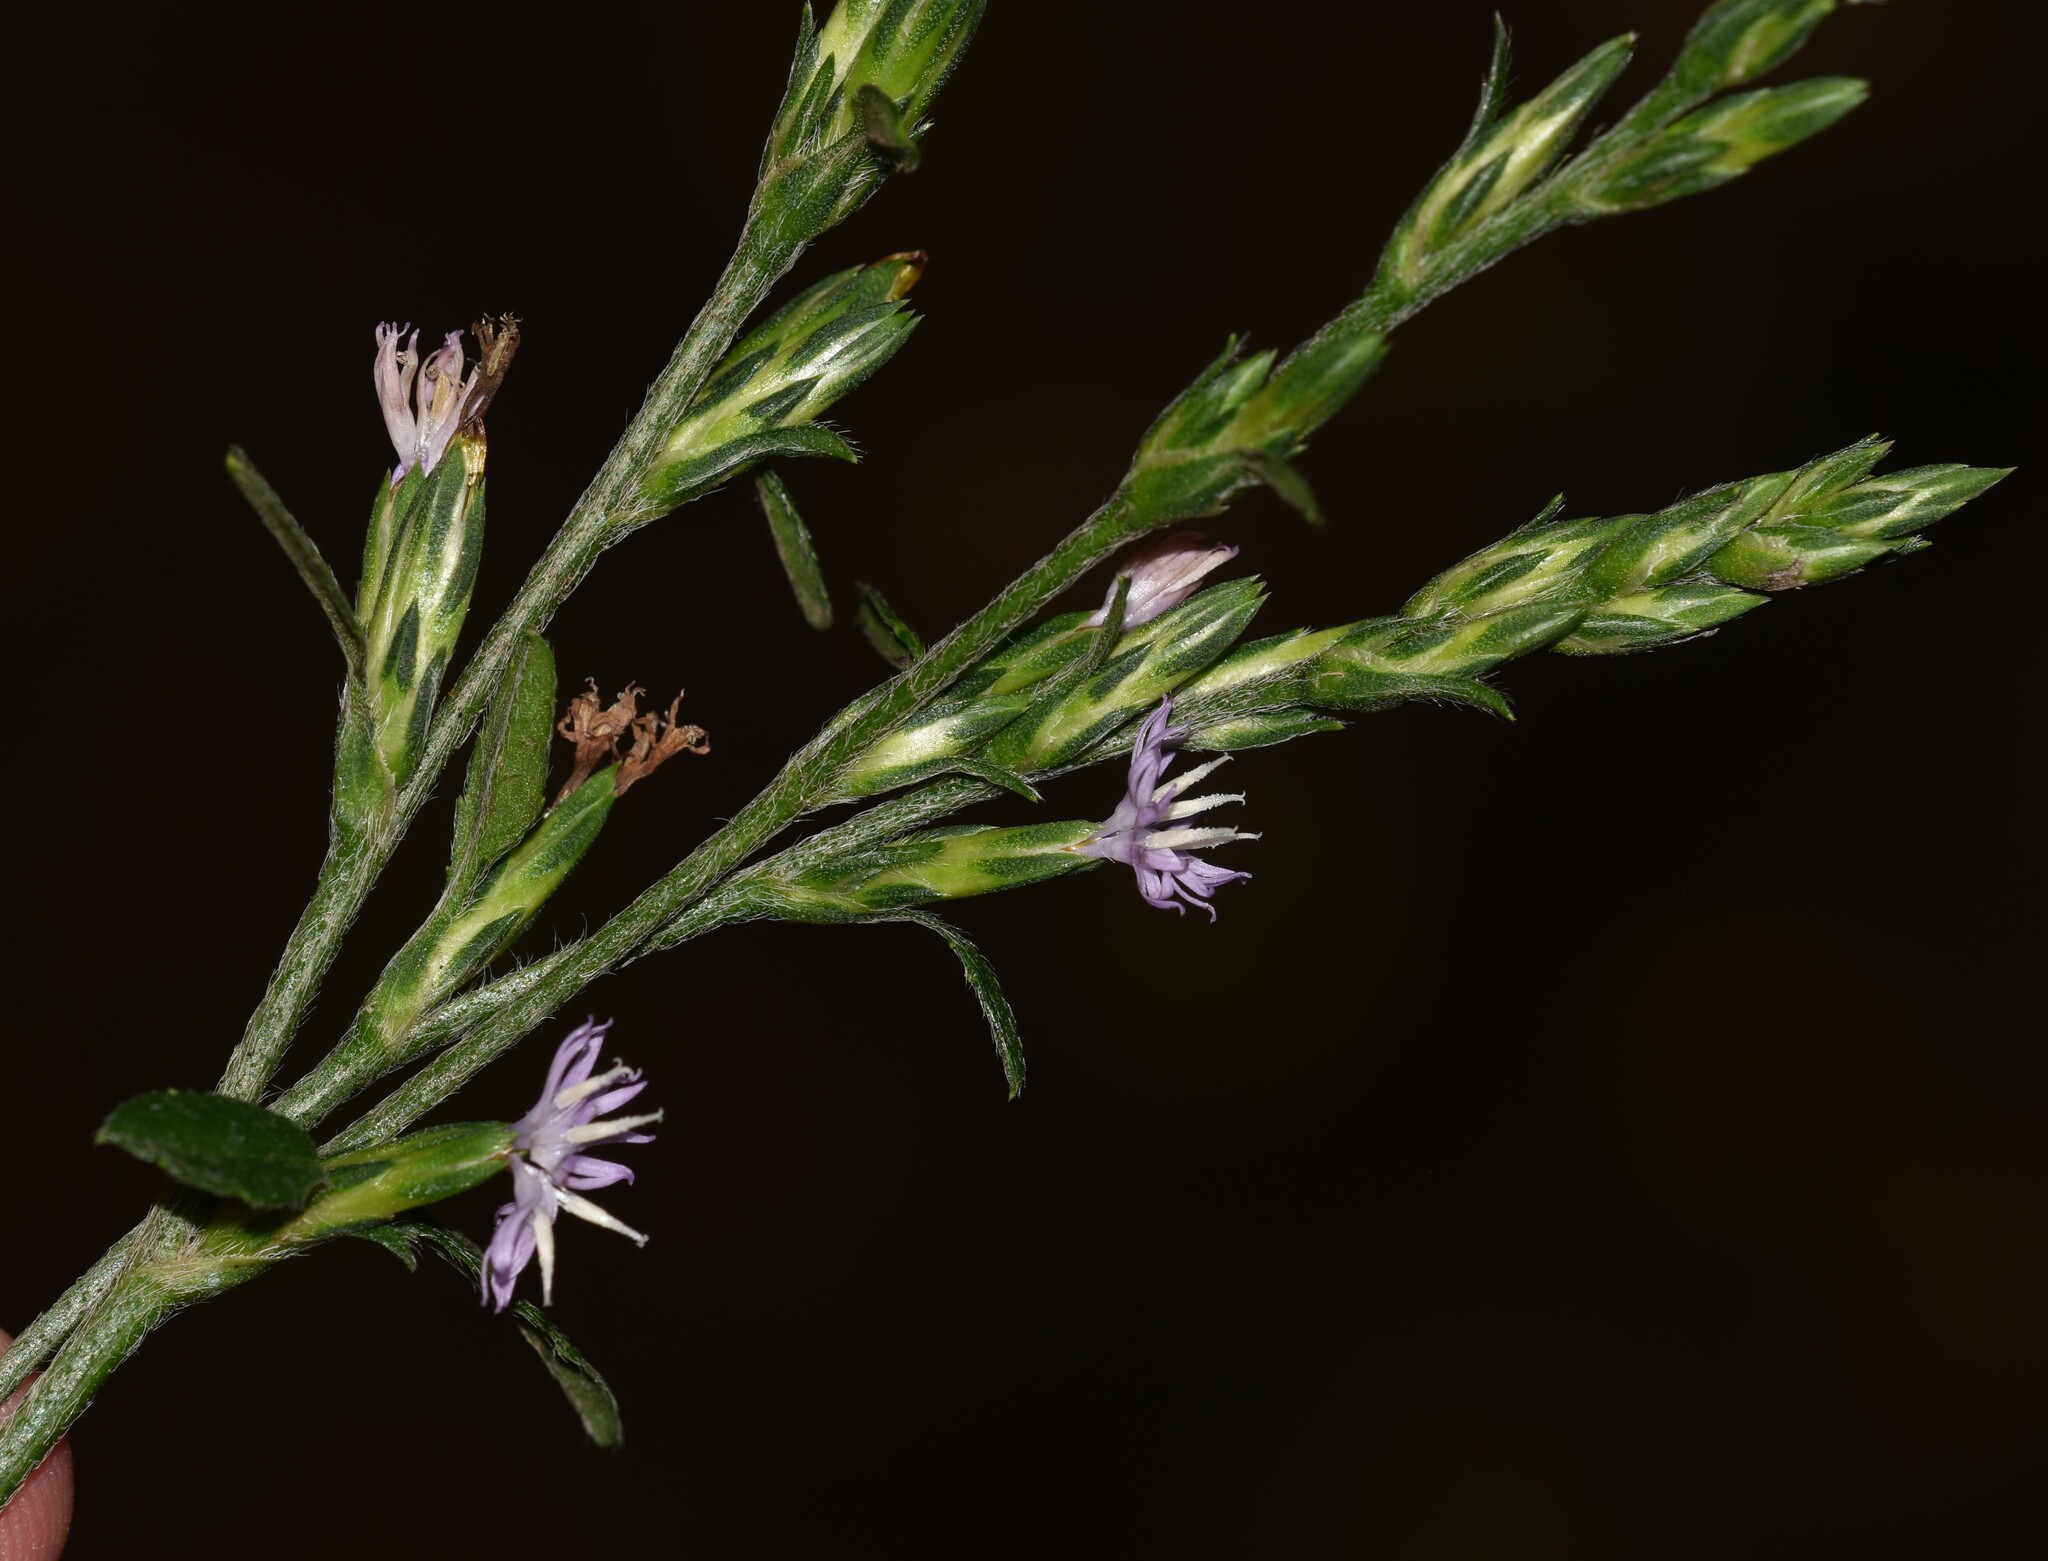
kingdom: Plantae
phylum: Tracheophyta
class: Magnoliopsida
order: Asterales
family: Asteraceae
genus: Pseudelephantopus
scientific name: Pseudelephantopus spicatus
